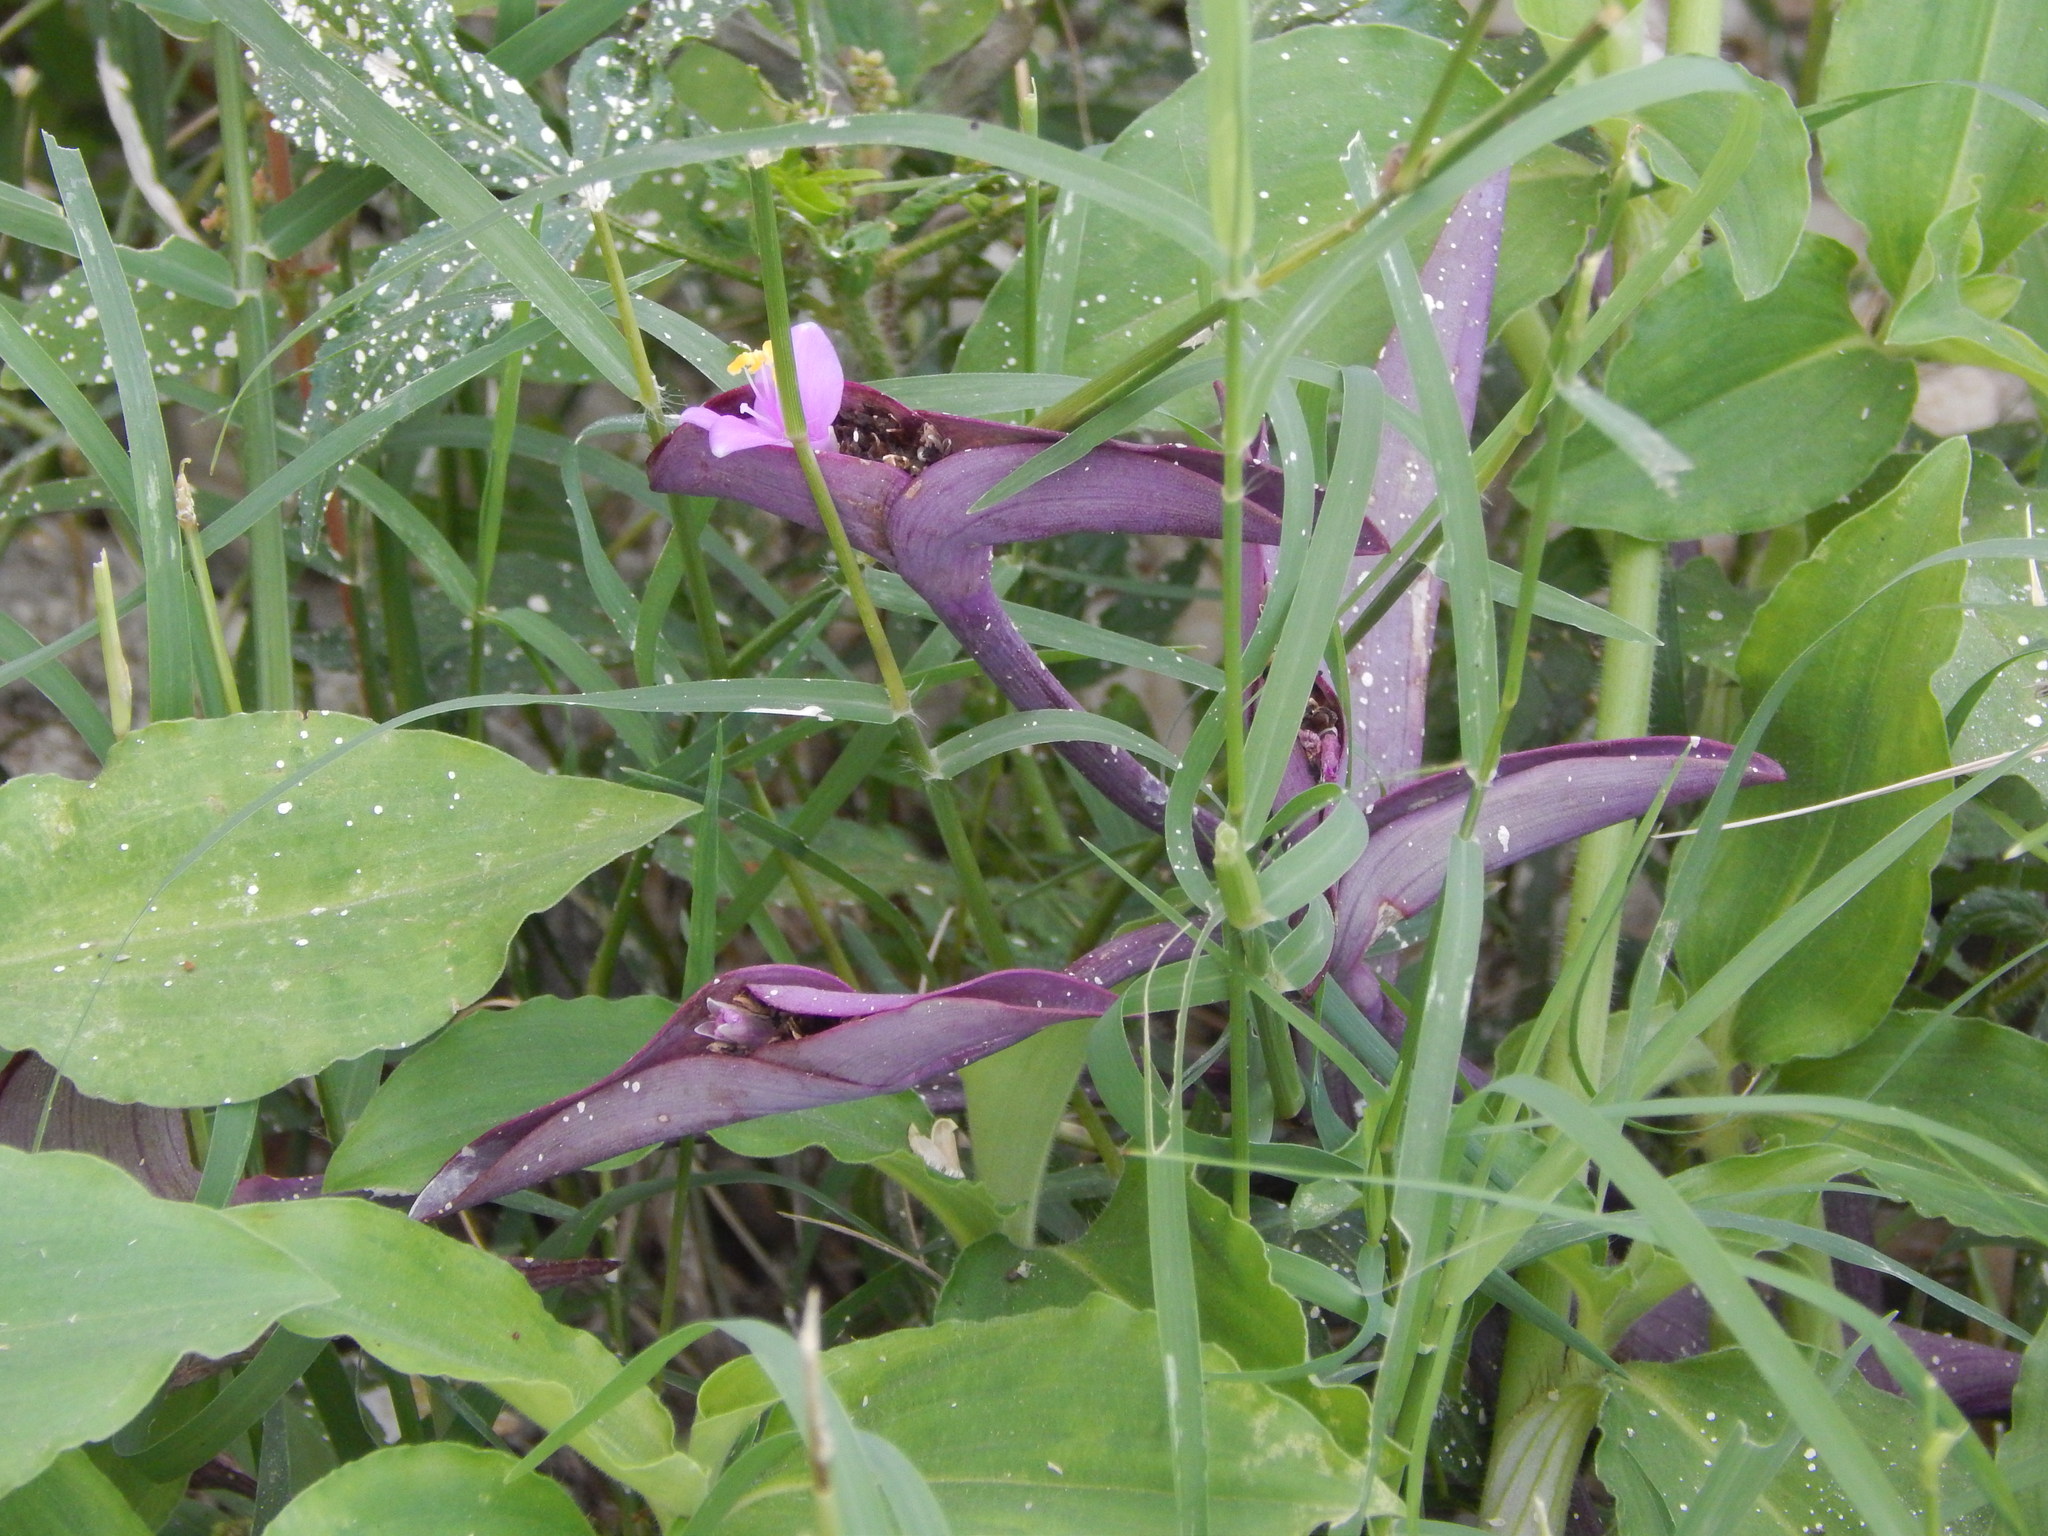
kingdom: Plantae
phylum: Tracheophyta
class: Liliopsida
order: Commelinales
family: Commelinaceae
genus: Tradescantia
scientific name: Tradescantia pallida
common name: Purpleheart
